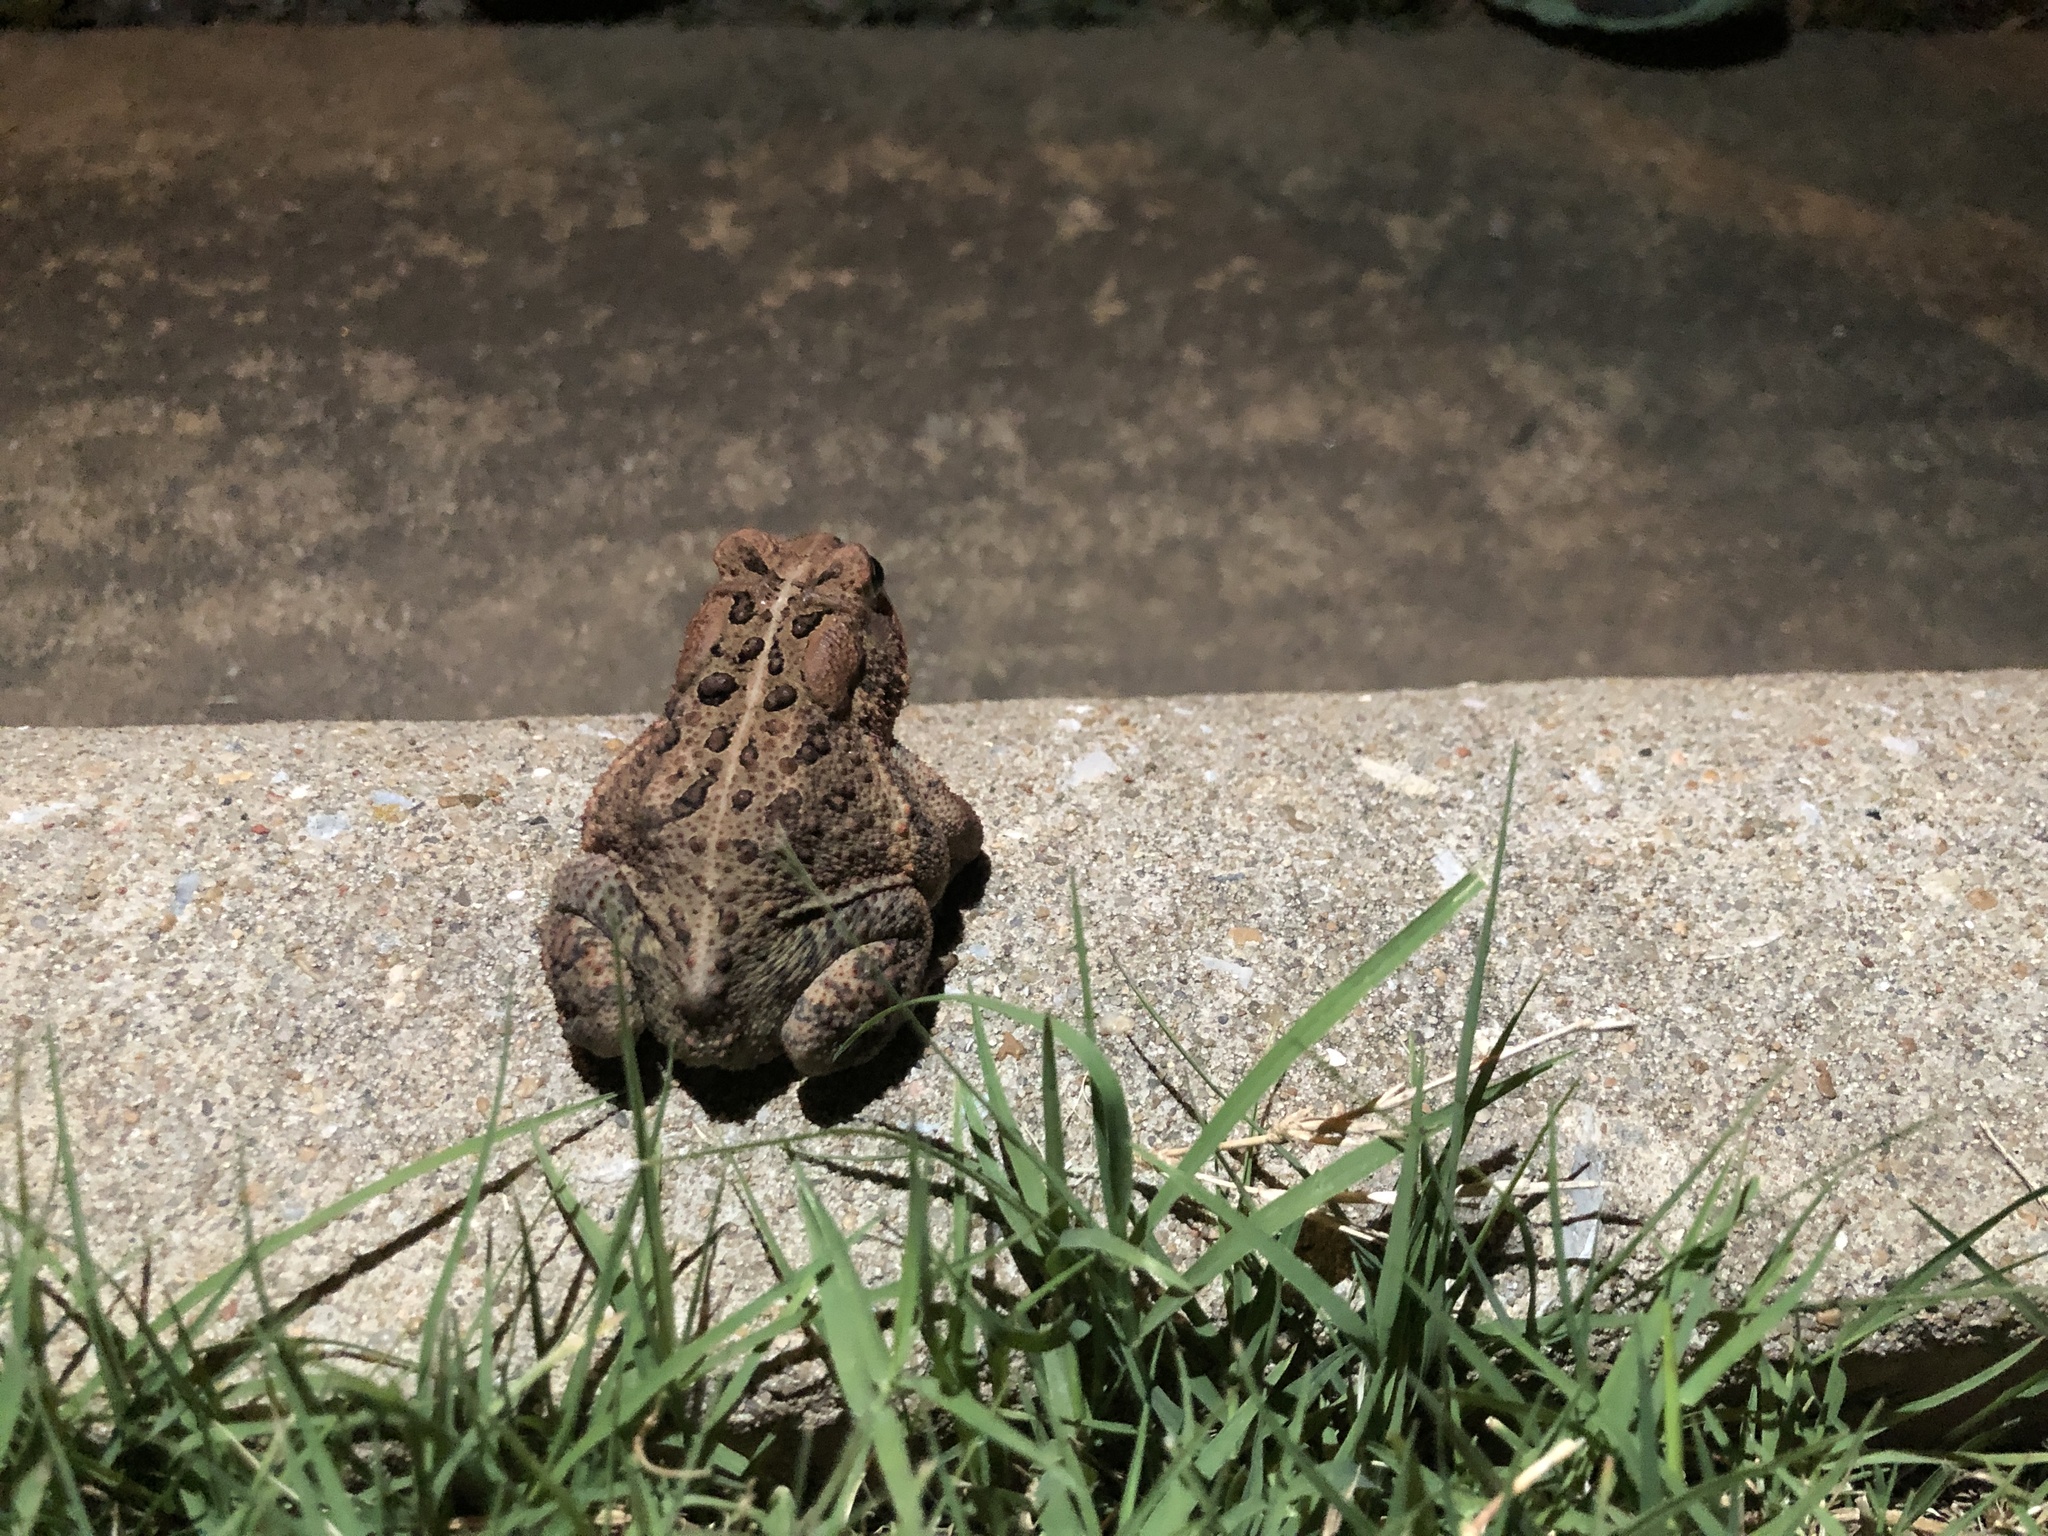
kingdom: Animalia
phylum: Chordata
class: Amphibia
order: Anura
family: Bufonidae
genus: Anaxyrus
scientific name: Anaxyrus americanus
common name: American toad
